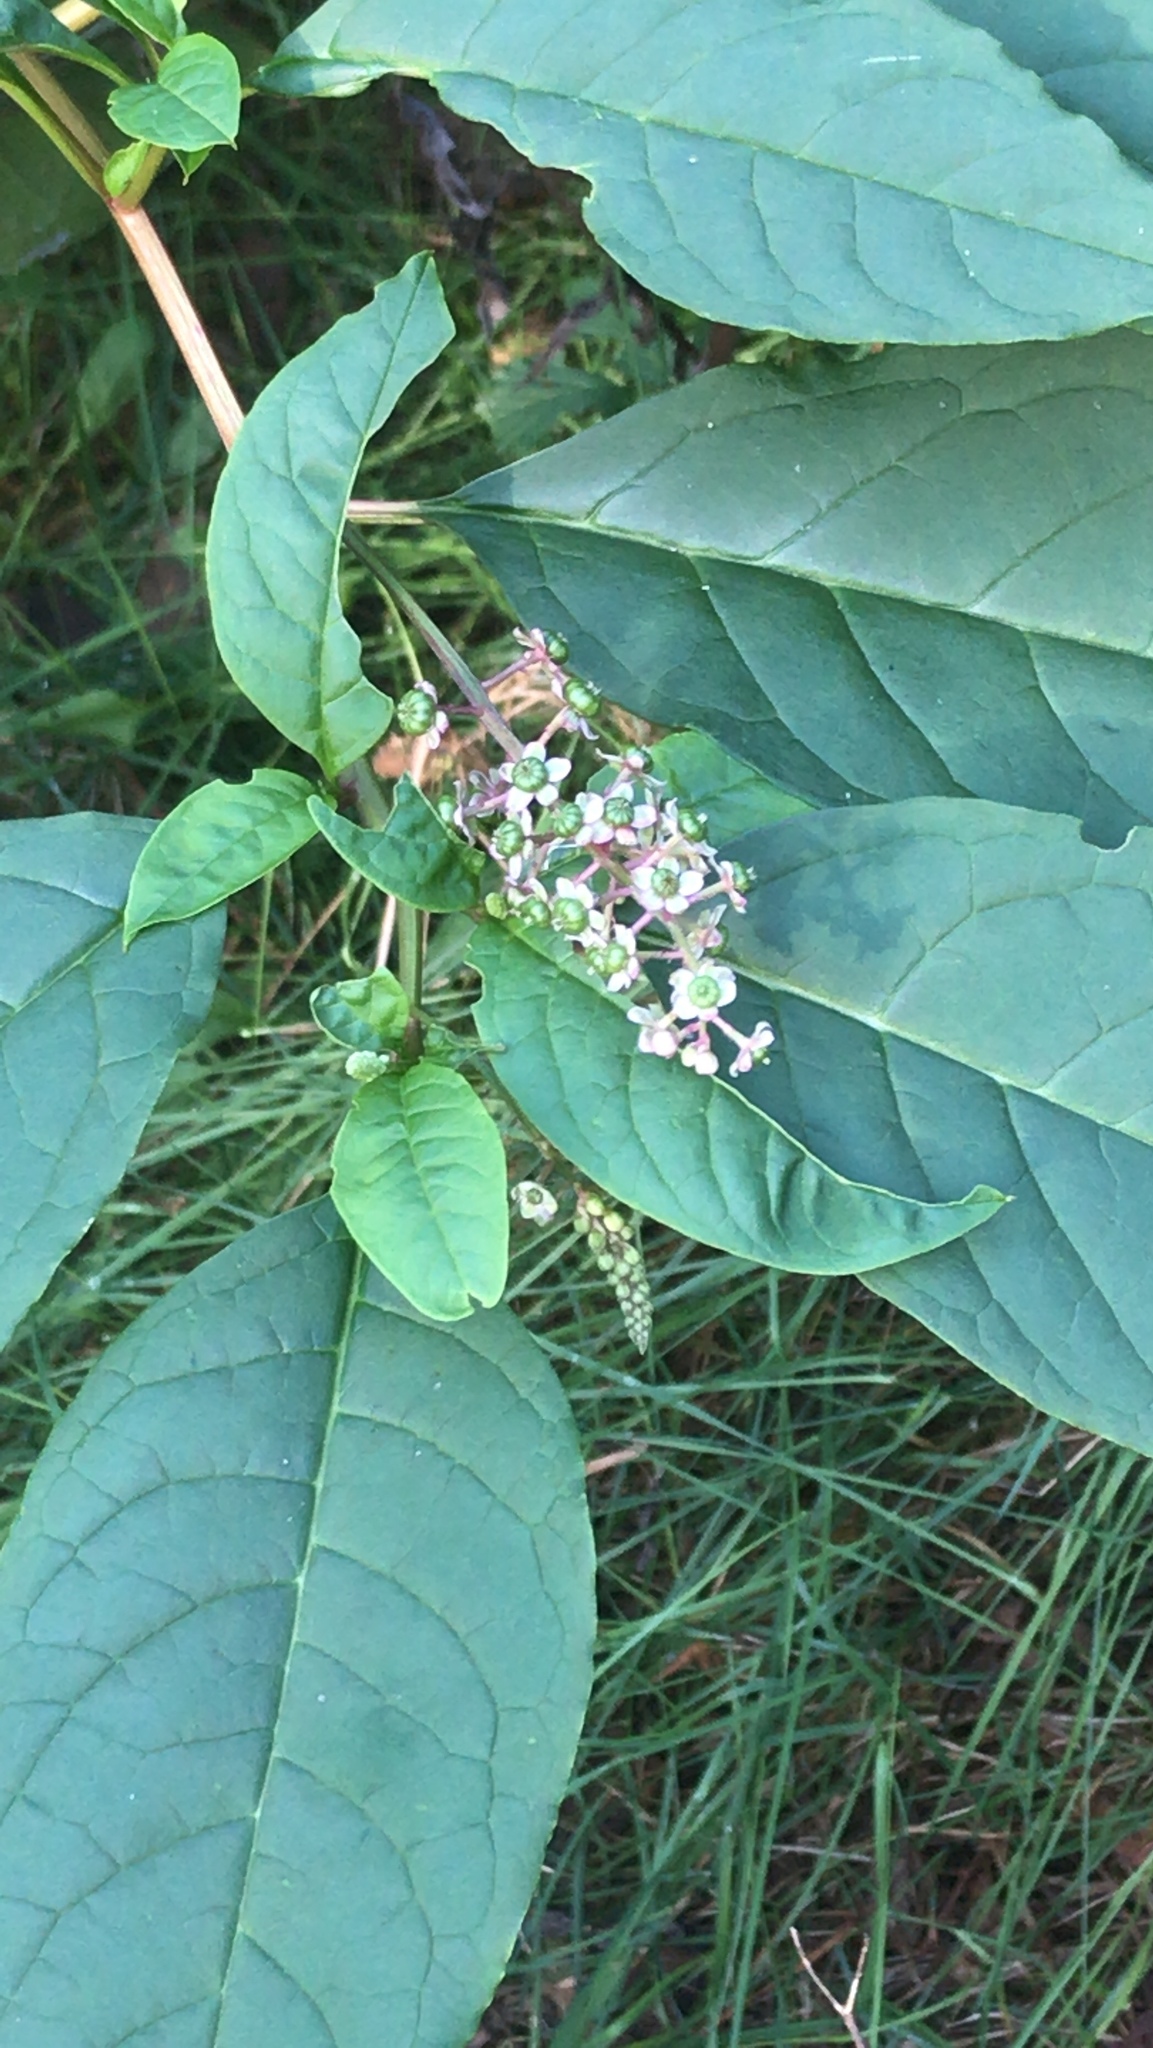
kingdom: Plantae
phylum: Tracheophyta
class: Magnoliopsida
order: Caryophyllales
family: Phytolaccaceae
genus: Phytolacca
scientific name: Phytolacca americana
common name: American pokeweed
